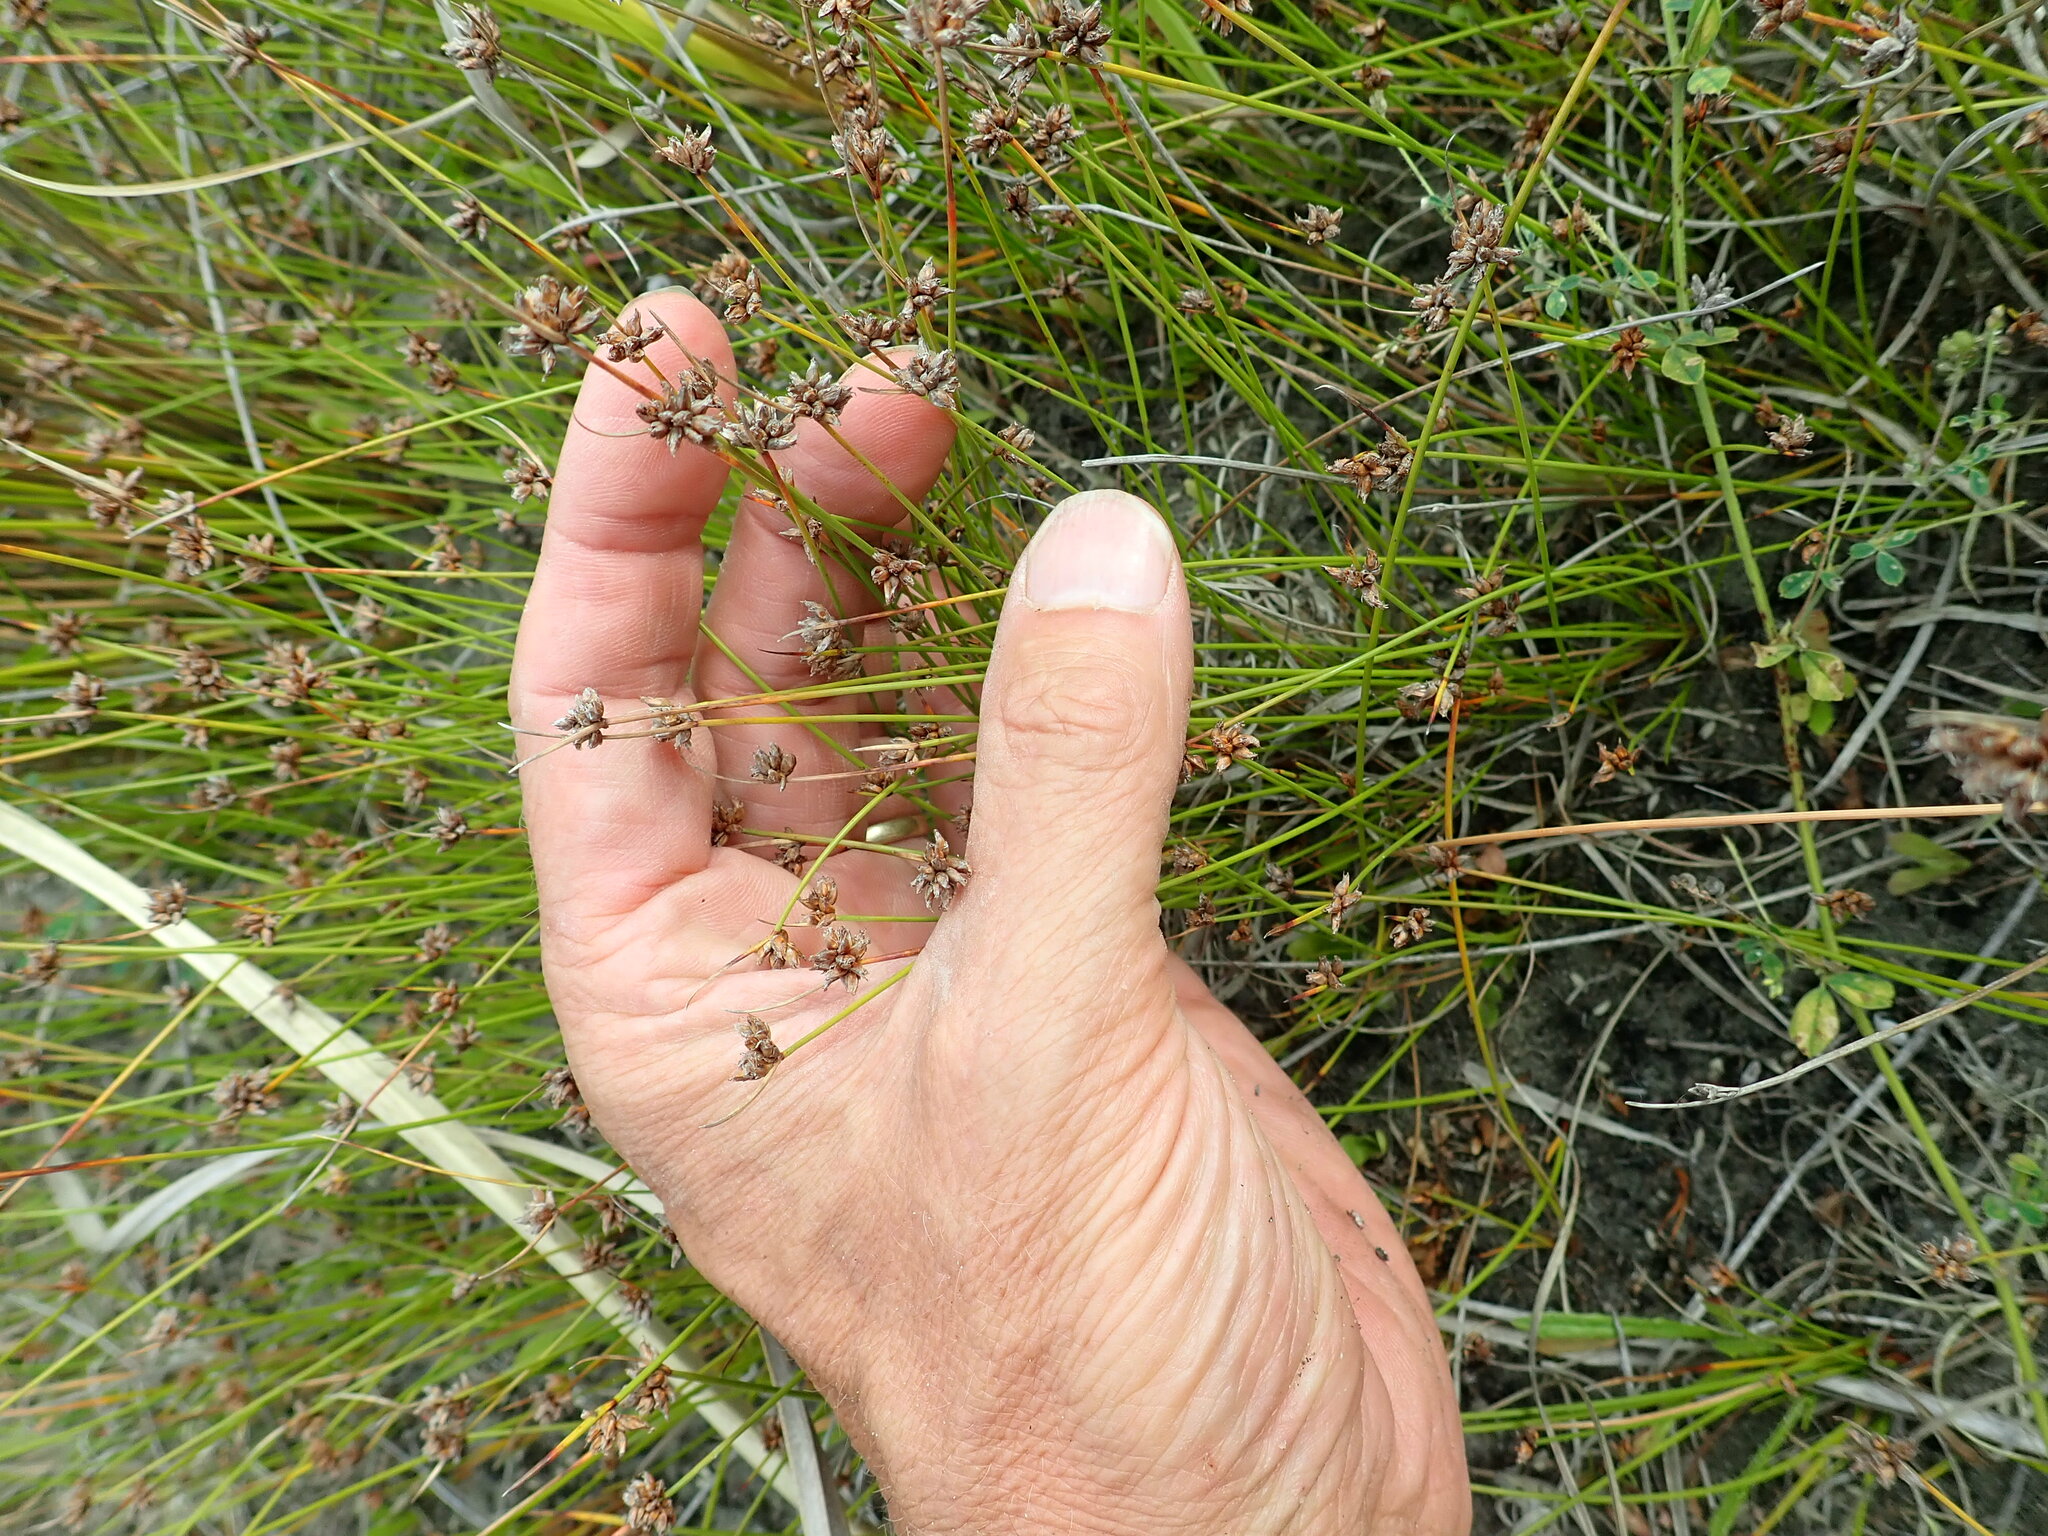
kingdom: Plantae
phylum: Tracheophyta
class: Liliopsida
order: Alismatales
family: Juncaginaceae
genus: Triglochin
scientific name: Triglochin striata
